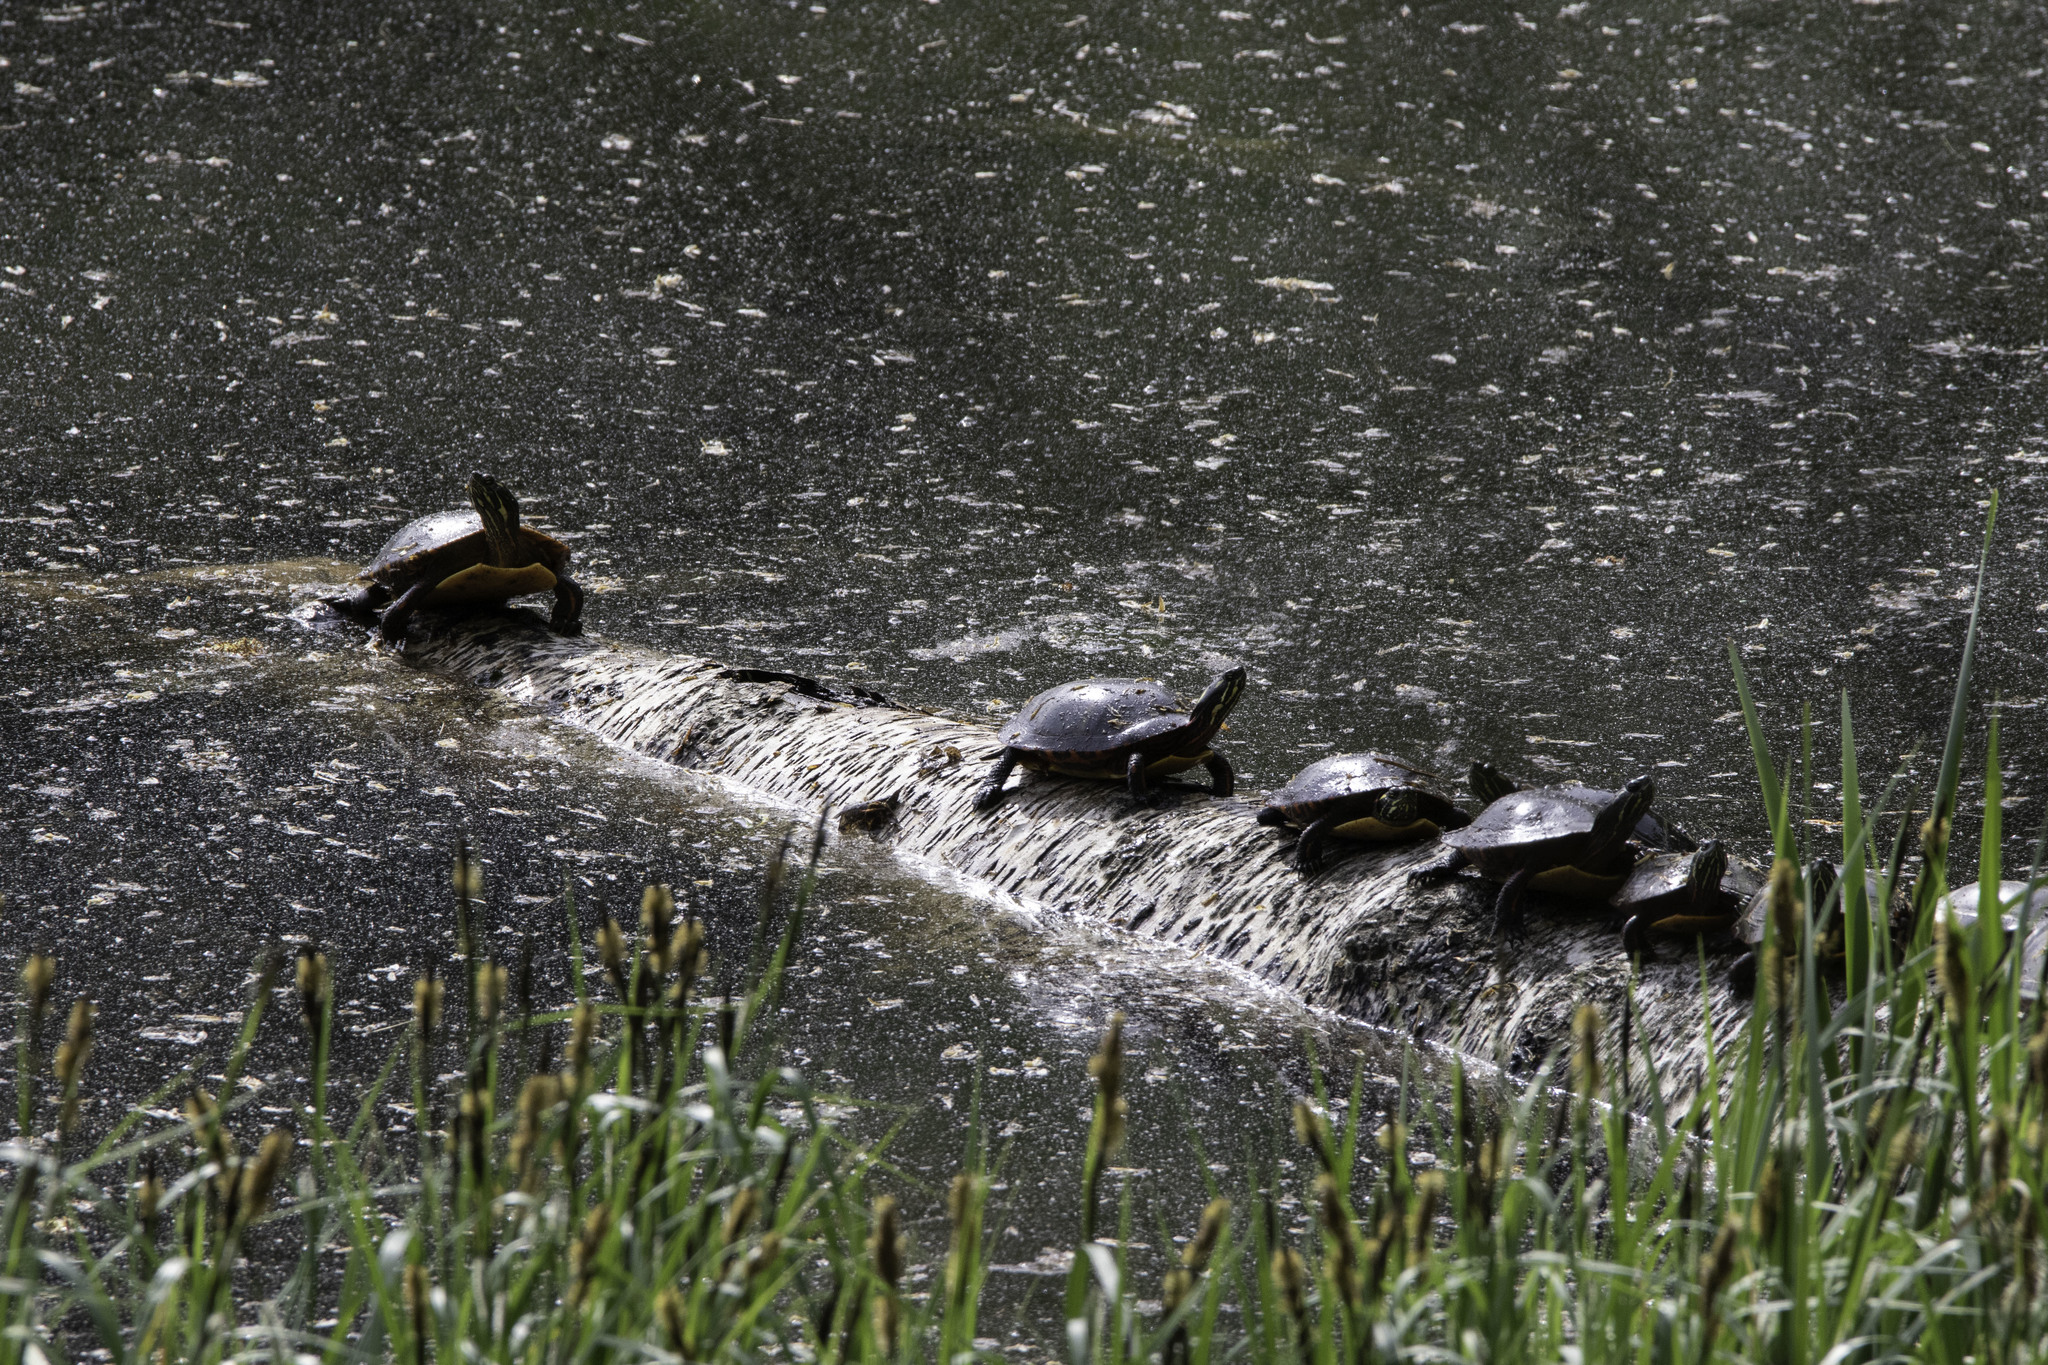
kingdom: Animalia
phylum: Chordata
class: Testudines
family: Emydidae
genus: Chrysemys
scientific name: Chrysemys picta
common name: Painted turtle
